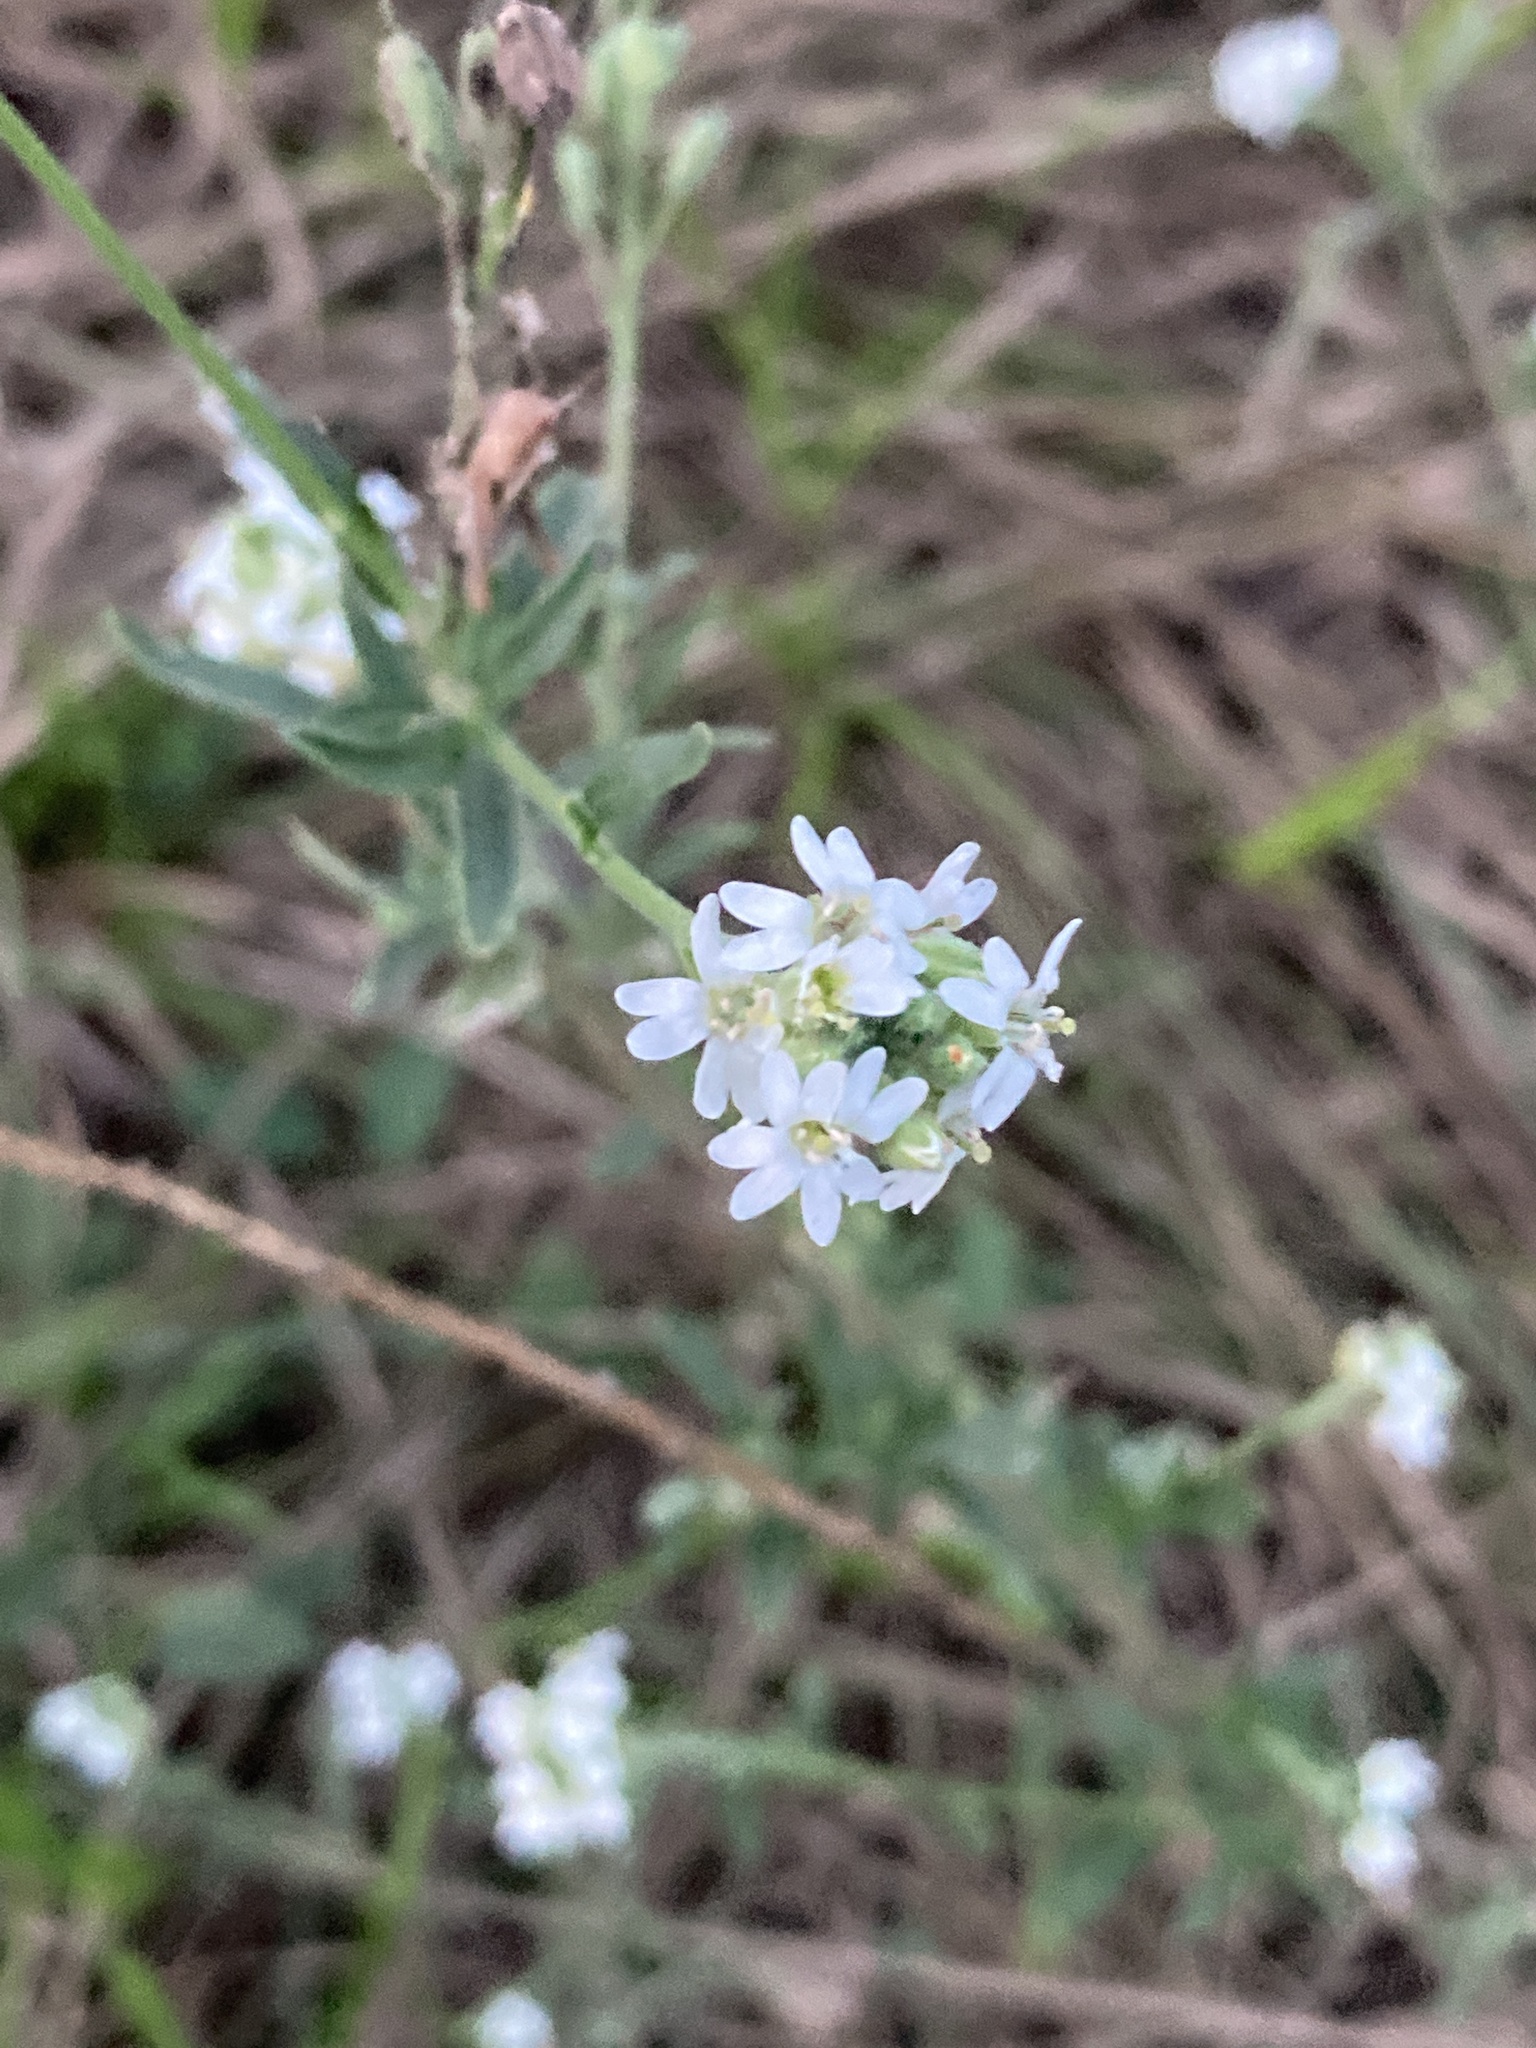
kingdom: Plantae
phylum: Tracheophyta
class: Magnoliopsida
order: Brassicales
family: Brassicaceae
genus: Berteroa
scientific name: Berteroa incana
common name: Hoary alison
